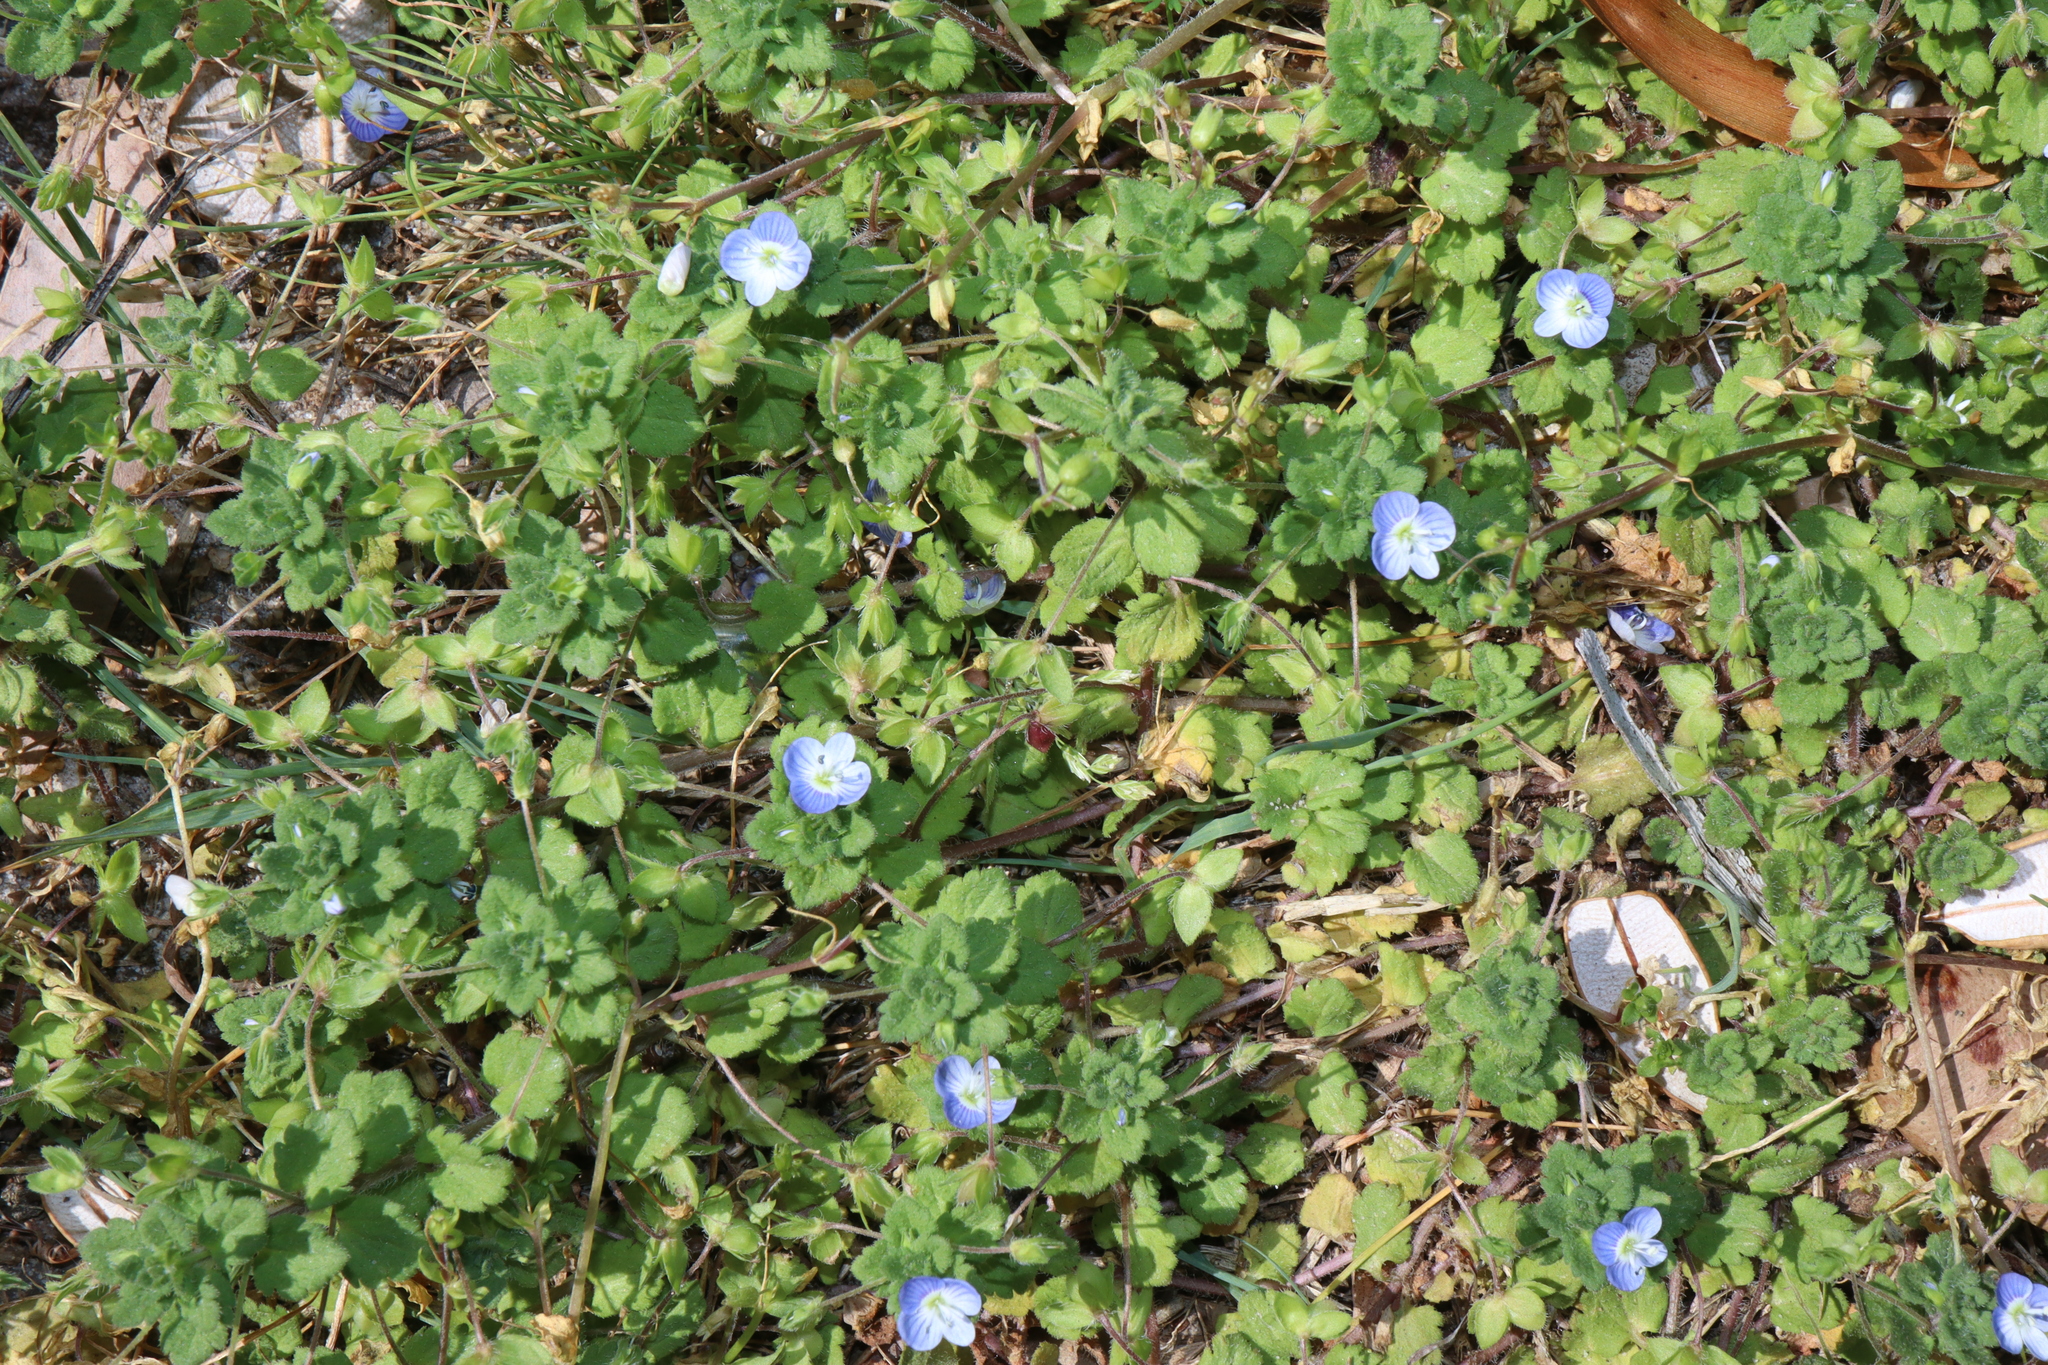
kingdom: Plantae
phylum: Tracheophyta
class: Magnoliopsida
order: Lamiales
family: Plantaginaceae
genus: Veronica
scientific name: Veronica persica
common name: Common field-speedwell
